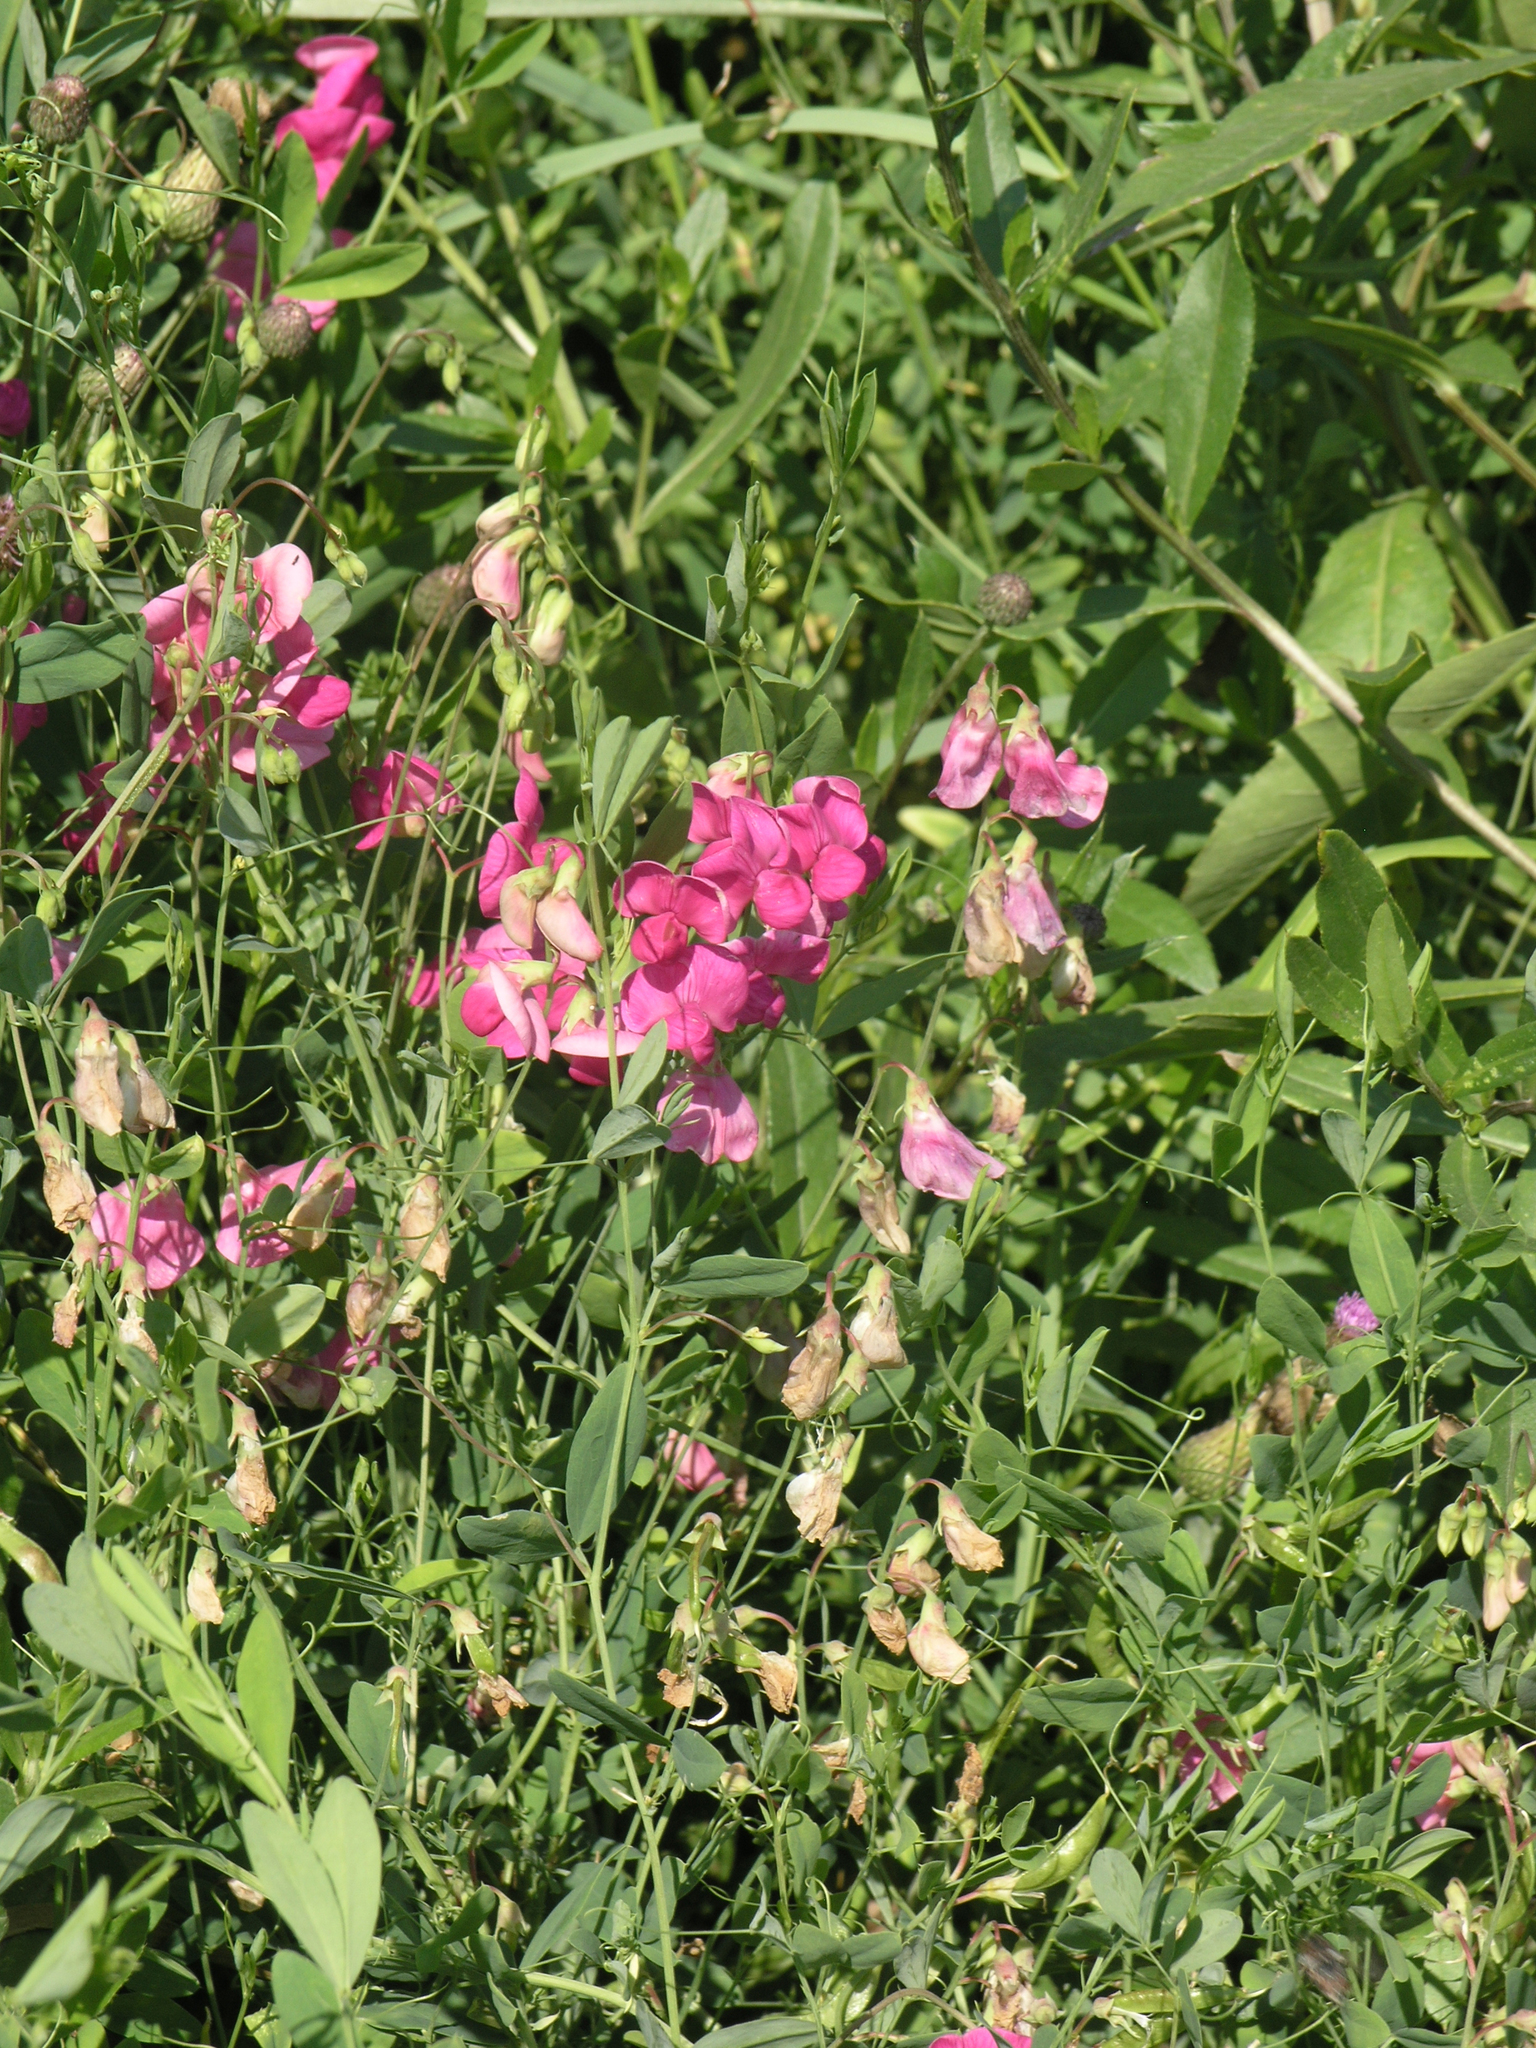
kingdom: Plantae
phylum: Tracheophyta
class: Magnoliopsida
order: Fabales
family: Fabaceae
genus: Lathyrus
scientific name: Lathyrus tuberosus
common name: Tuberous pea
